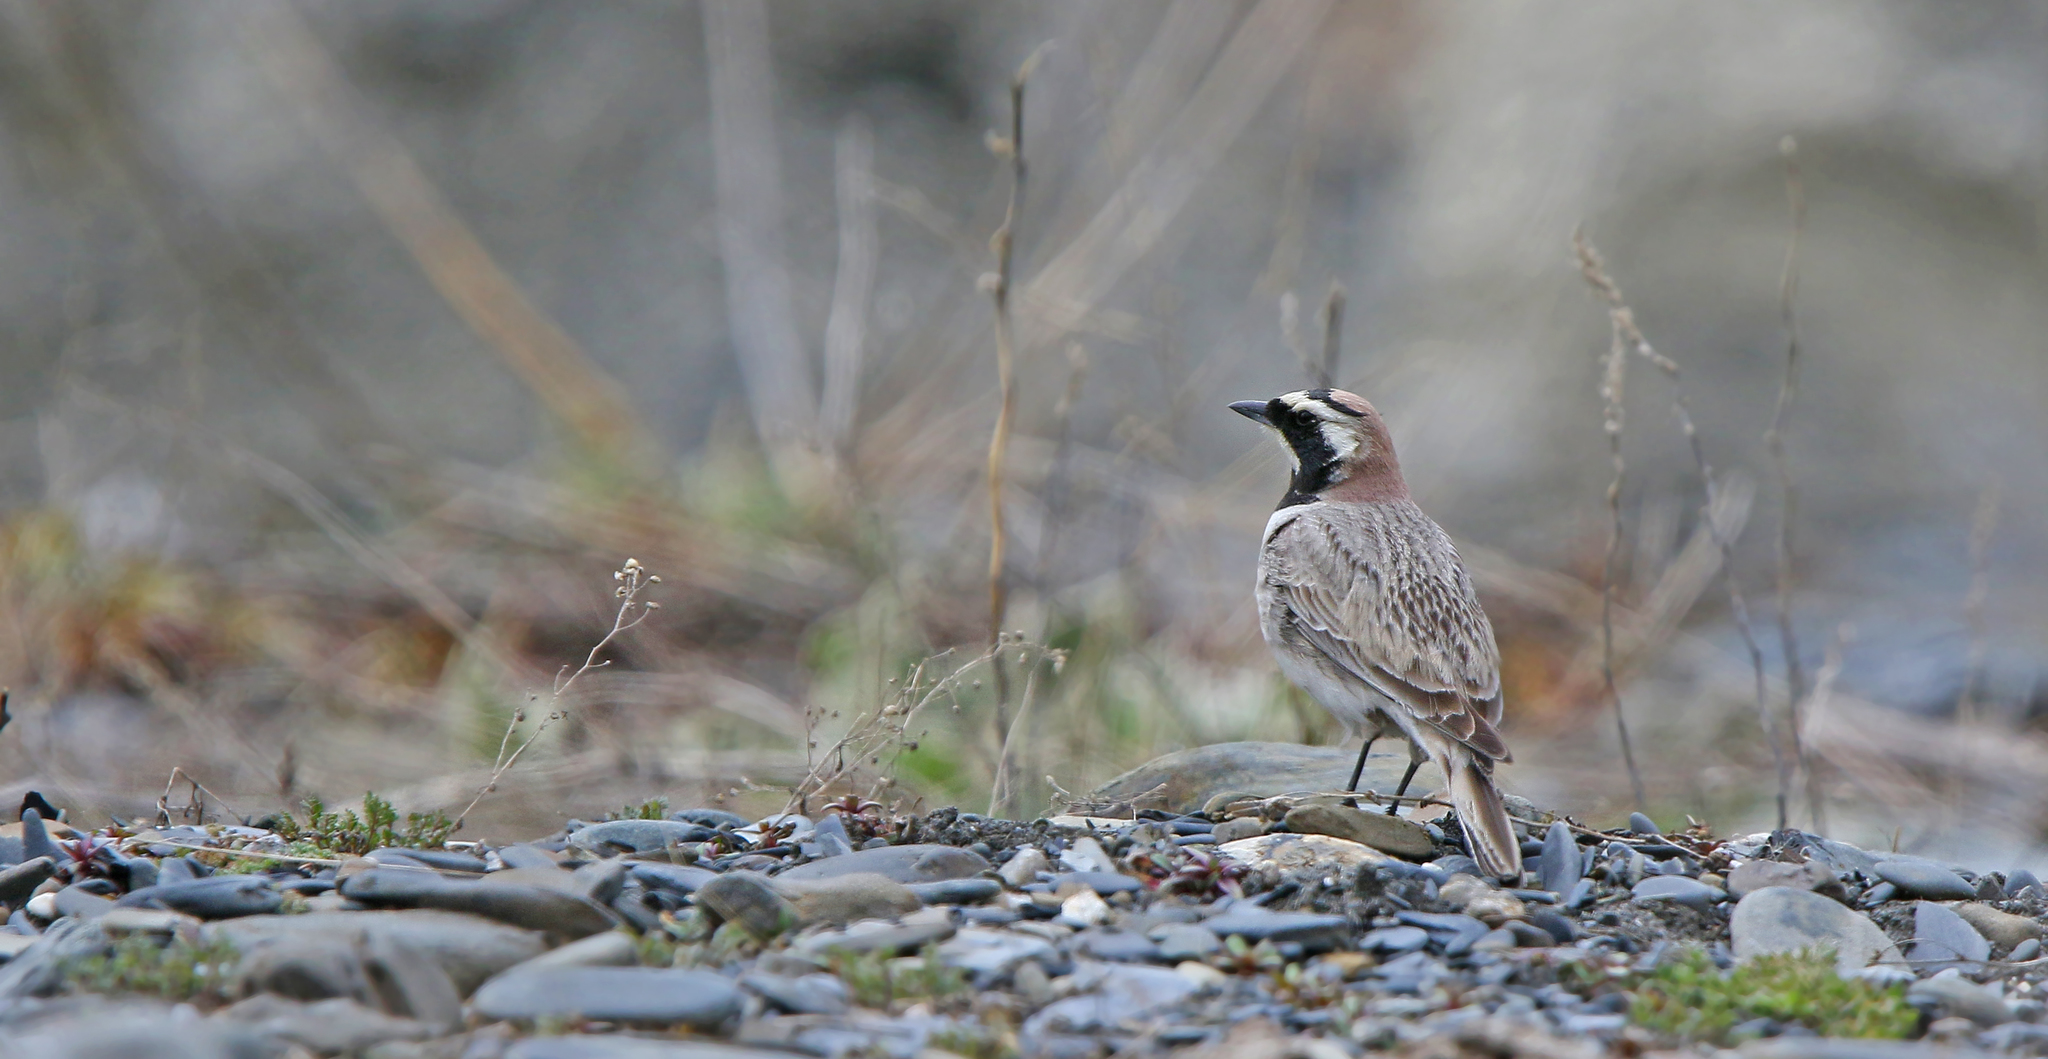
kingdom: Animalia
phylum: Chordata
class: Aves
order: Passeriformes
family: Alaudidae
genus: Eremophila
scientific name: Eremophila alpestris
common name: Horned lark
